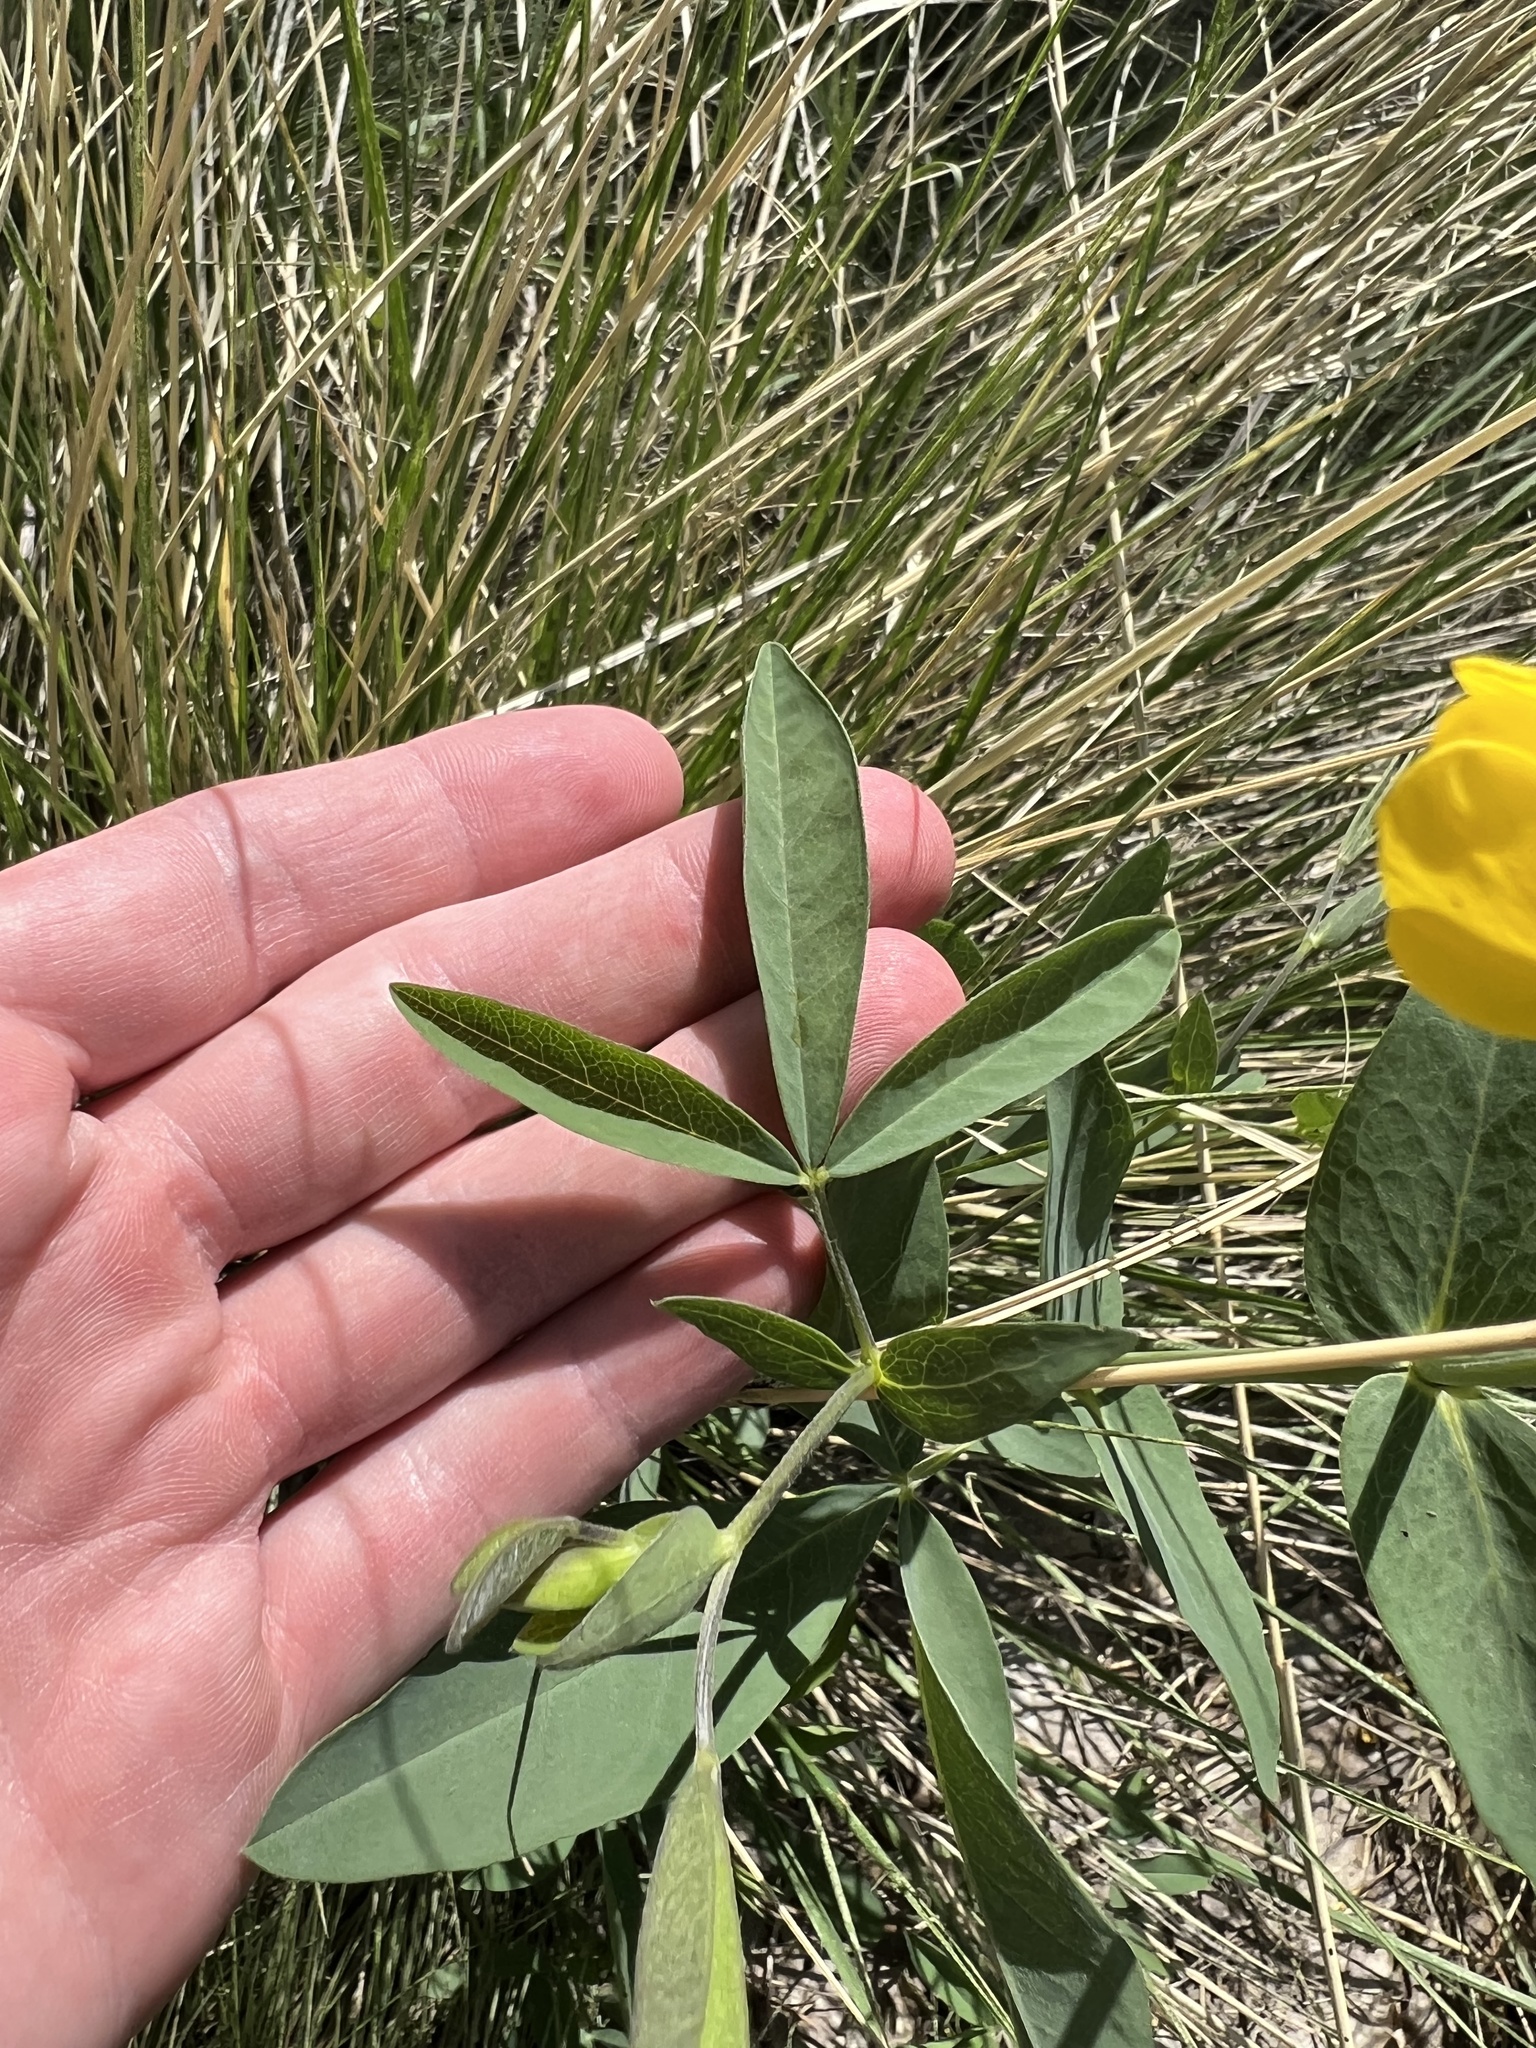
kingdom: Plantae
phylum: Tracheophyta
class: Magnoliopsida
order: Fabales
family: Fabaceae
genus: Thermopsis
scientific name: Thermopsis rhombifolia
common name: Circle-pod-pea
